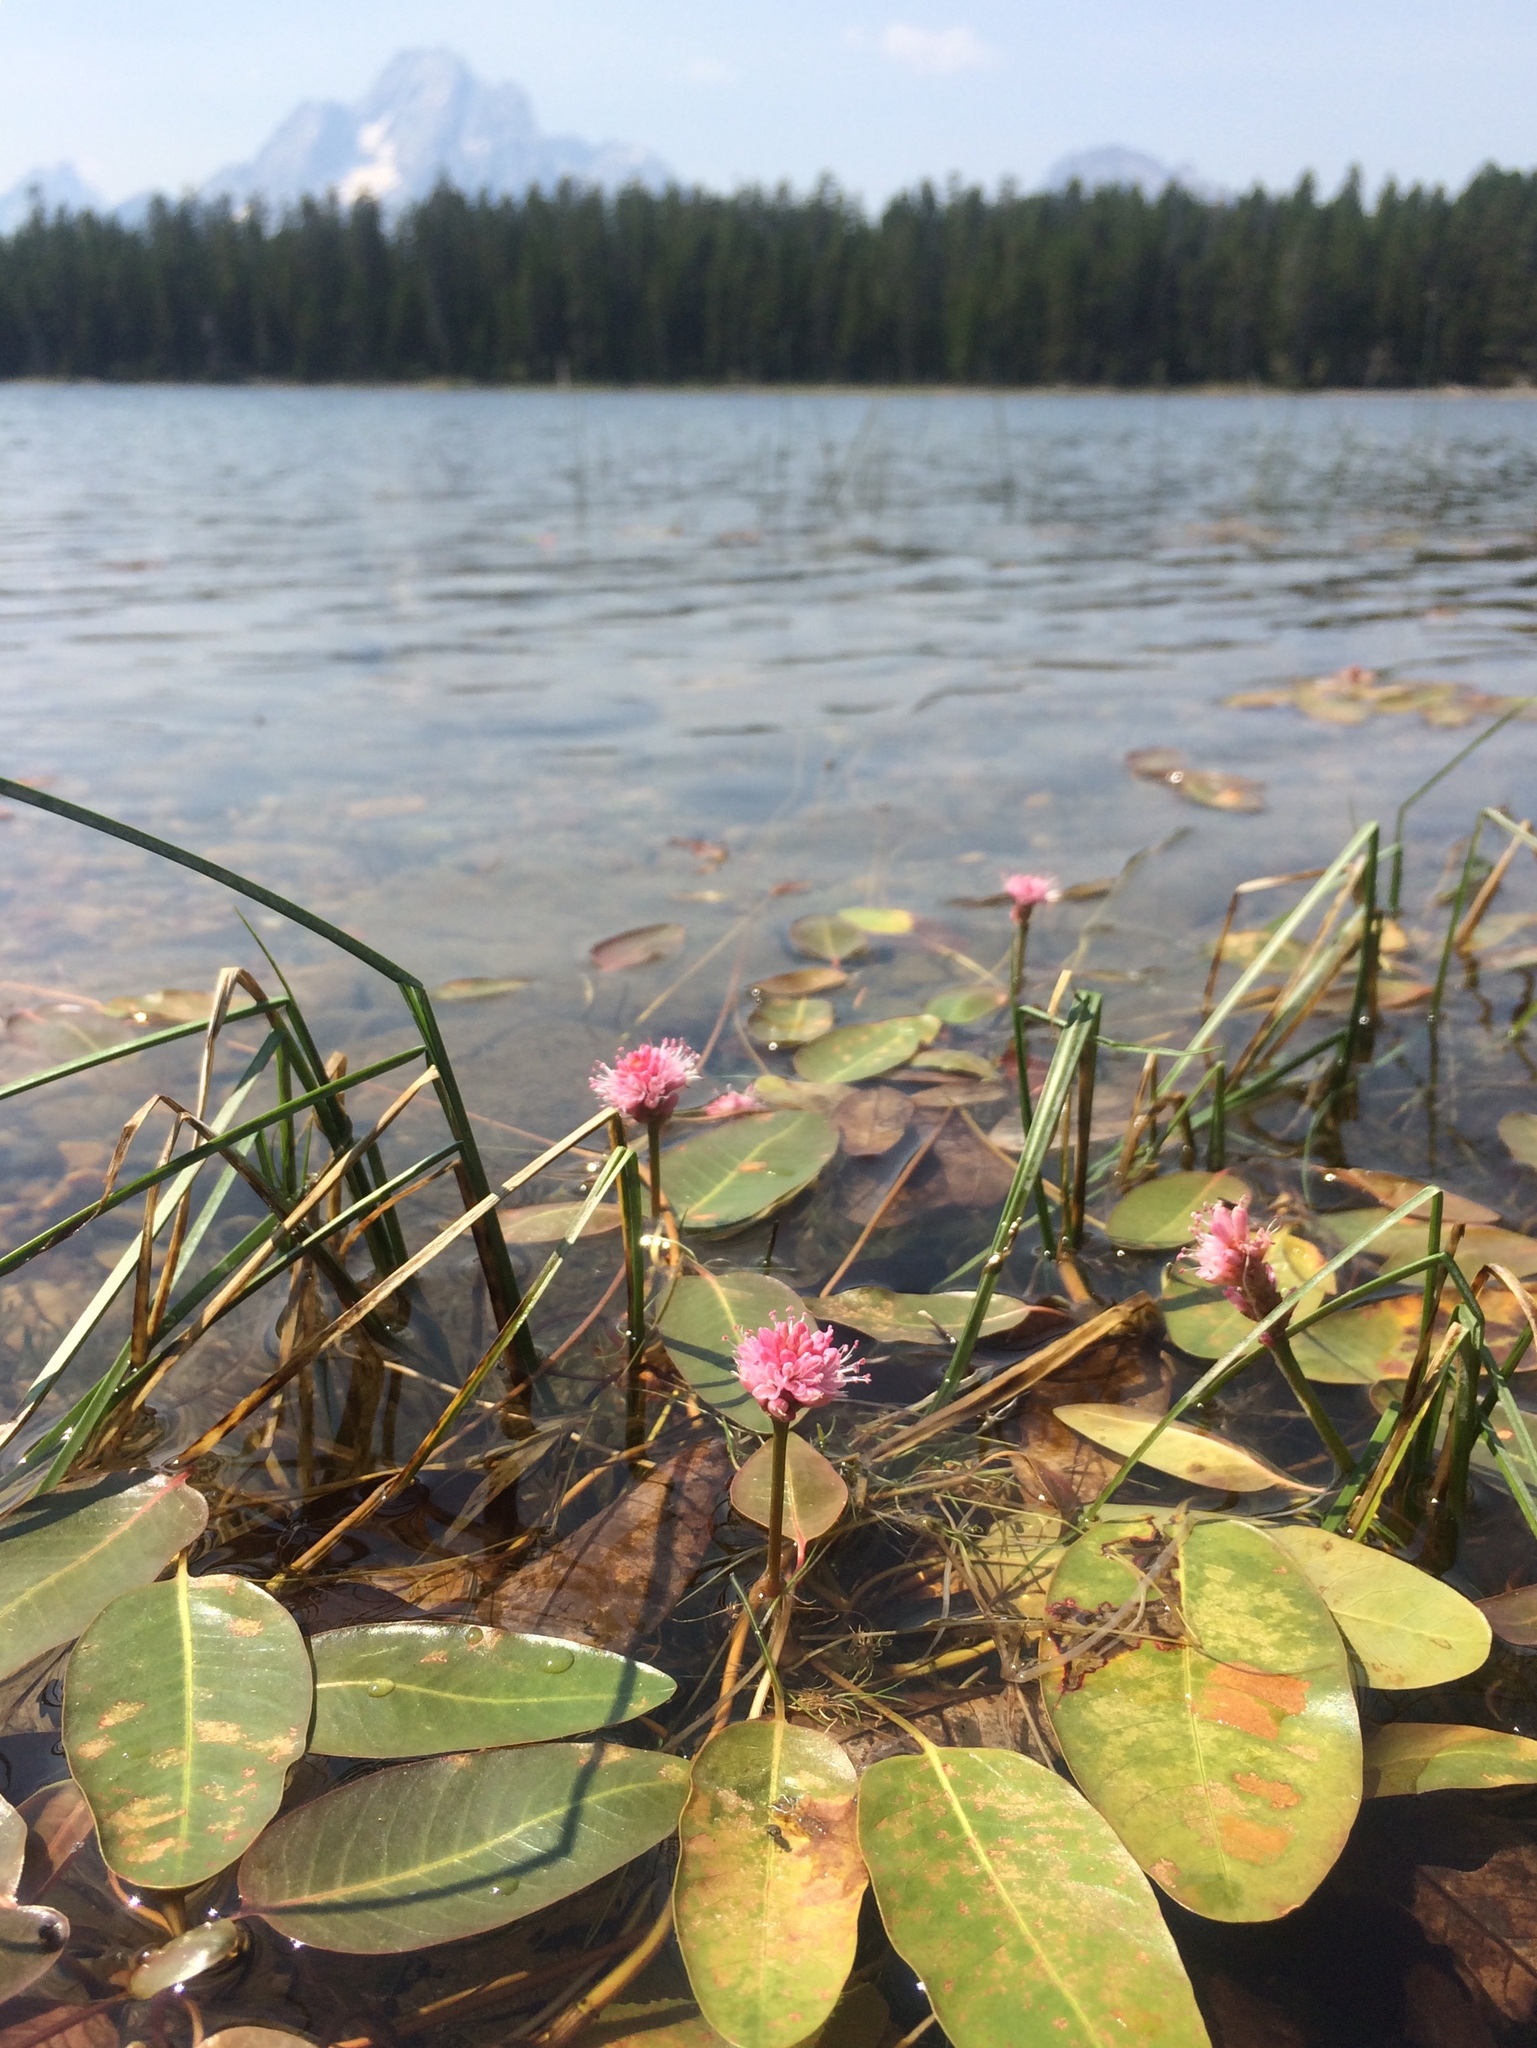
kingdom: Plantae
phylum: Tracheophyta
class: Magnoliopsida
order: Caryophyllales
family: Polygonaceae
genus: Persicaria
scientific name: Persicaria amphibia
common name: Amphibious bistort
